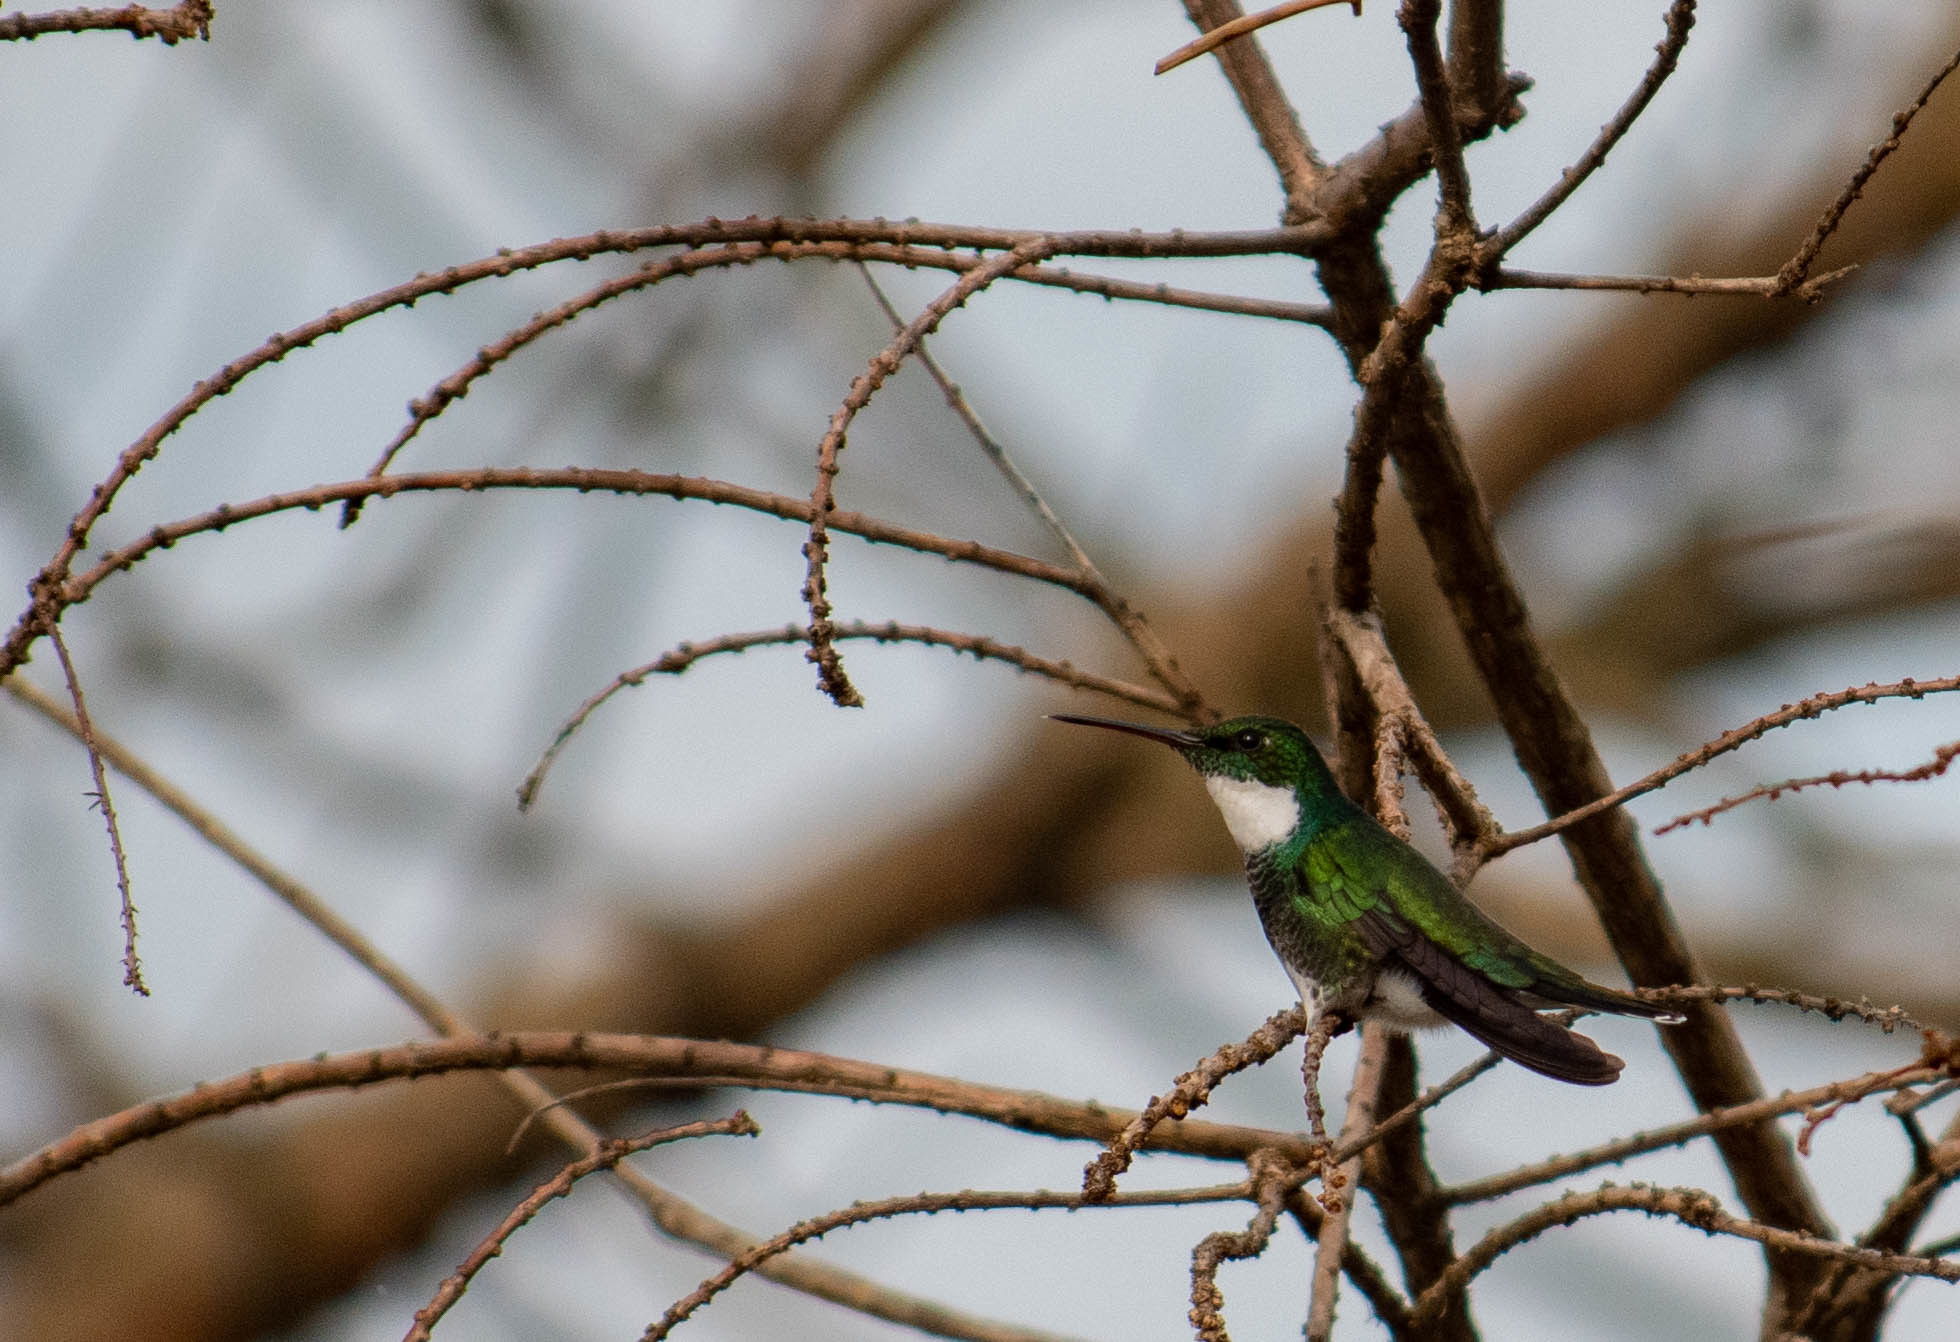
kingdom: Animalia
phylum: Chordata
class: Aves
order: Apodiformes
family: Trochilidae
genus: Leucochloris
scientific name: Leucochloris albicollis
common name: White-throated hummingbird
